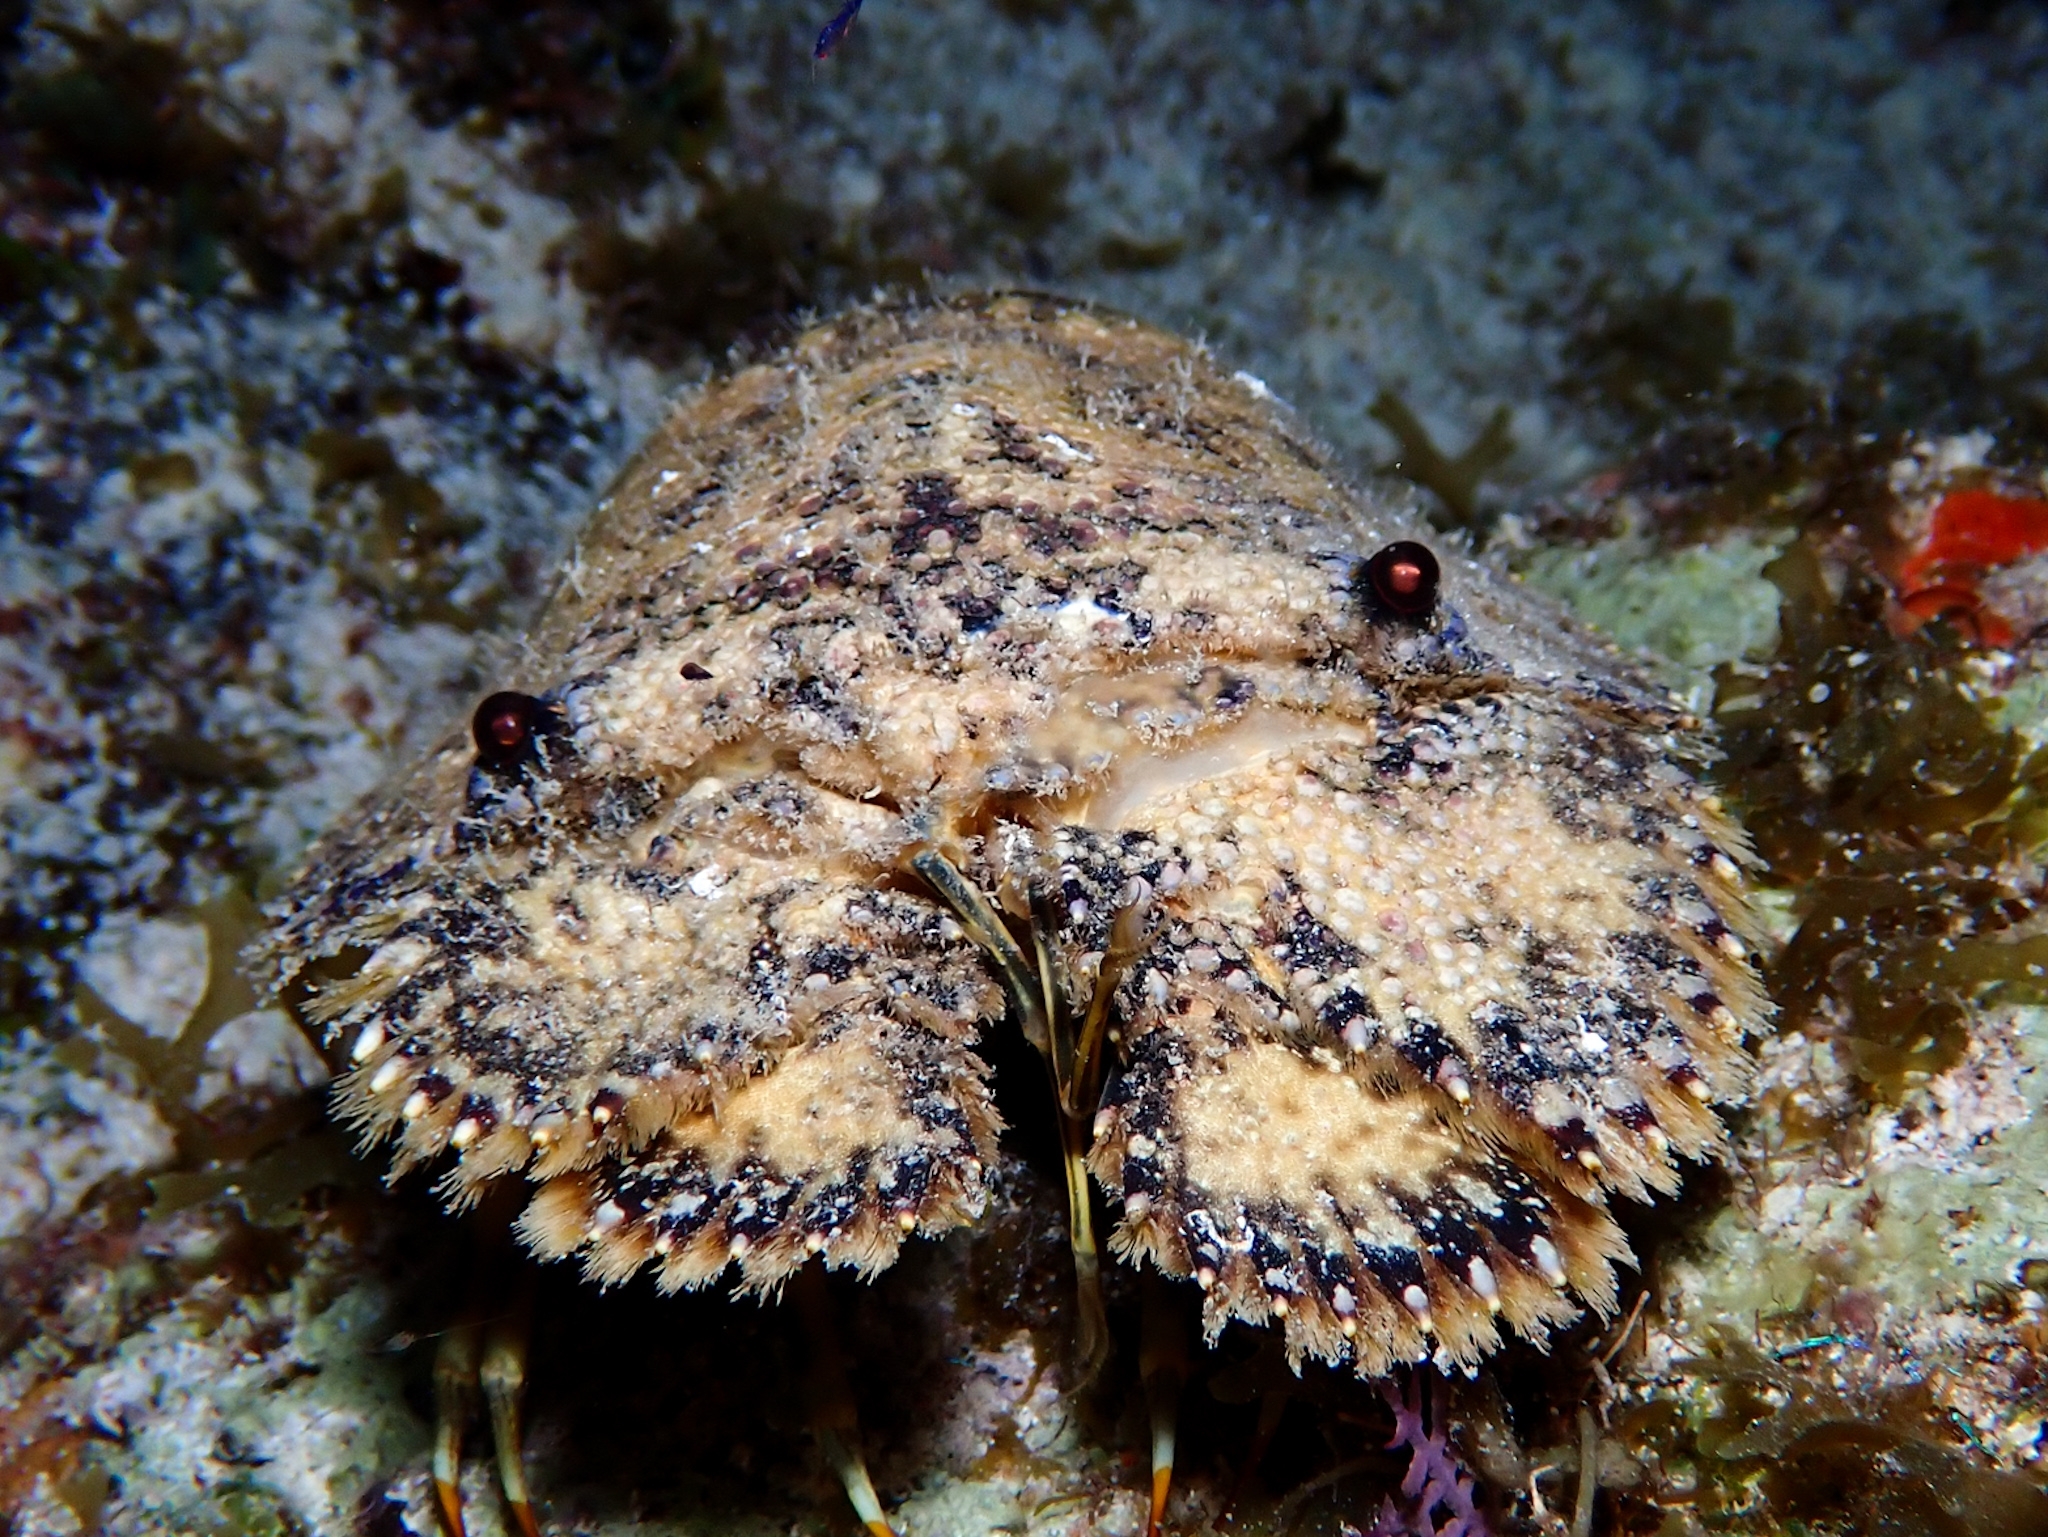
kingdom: Animalia
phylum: Arthropoda
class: Malacostraca
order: Decapoda
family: Scyllaridae
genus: Parribacus
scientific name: Parribacus antarcticus
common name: Sculptured mitten lobster
